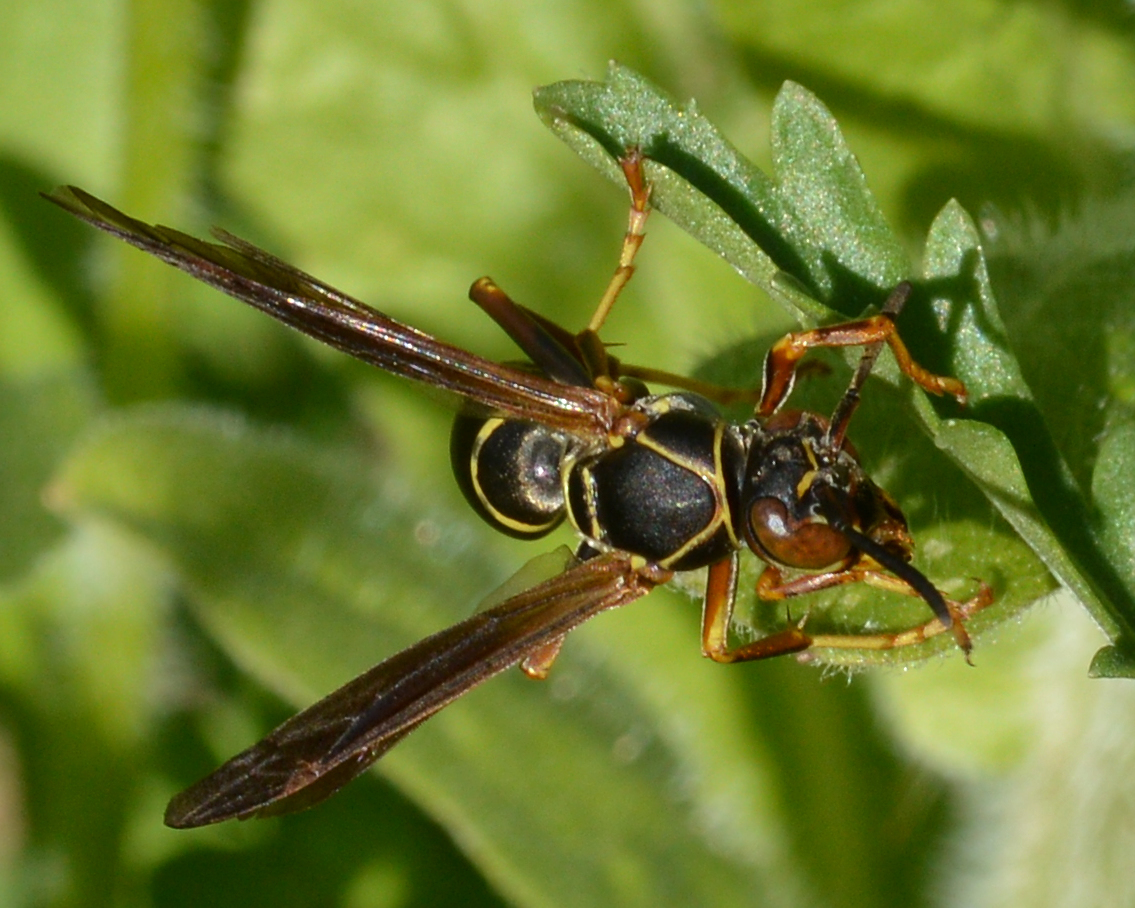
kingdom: Animalia
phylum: Arthropoda
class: Insecta
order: Hymenoptera
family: Eumenidae
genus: Polistes
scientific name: Polistes fuscatus
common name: Dark paper wasp
